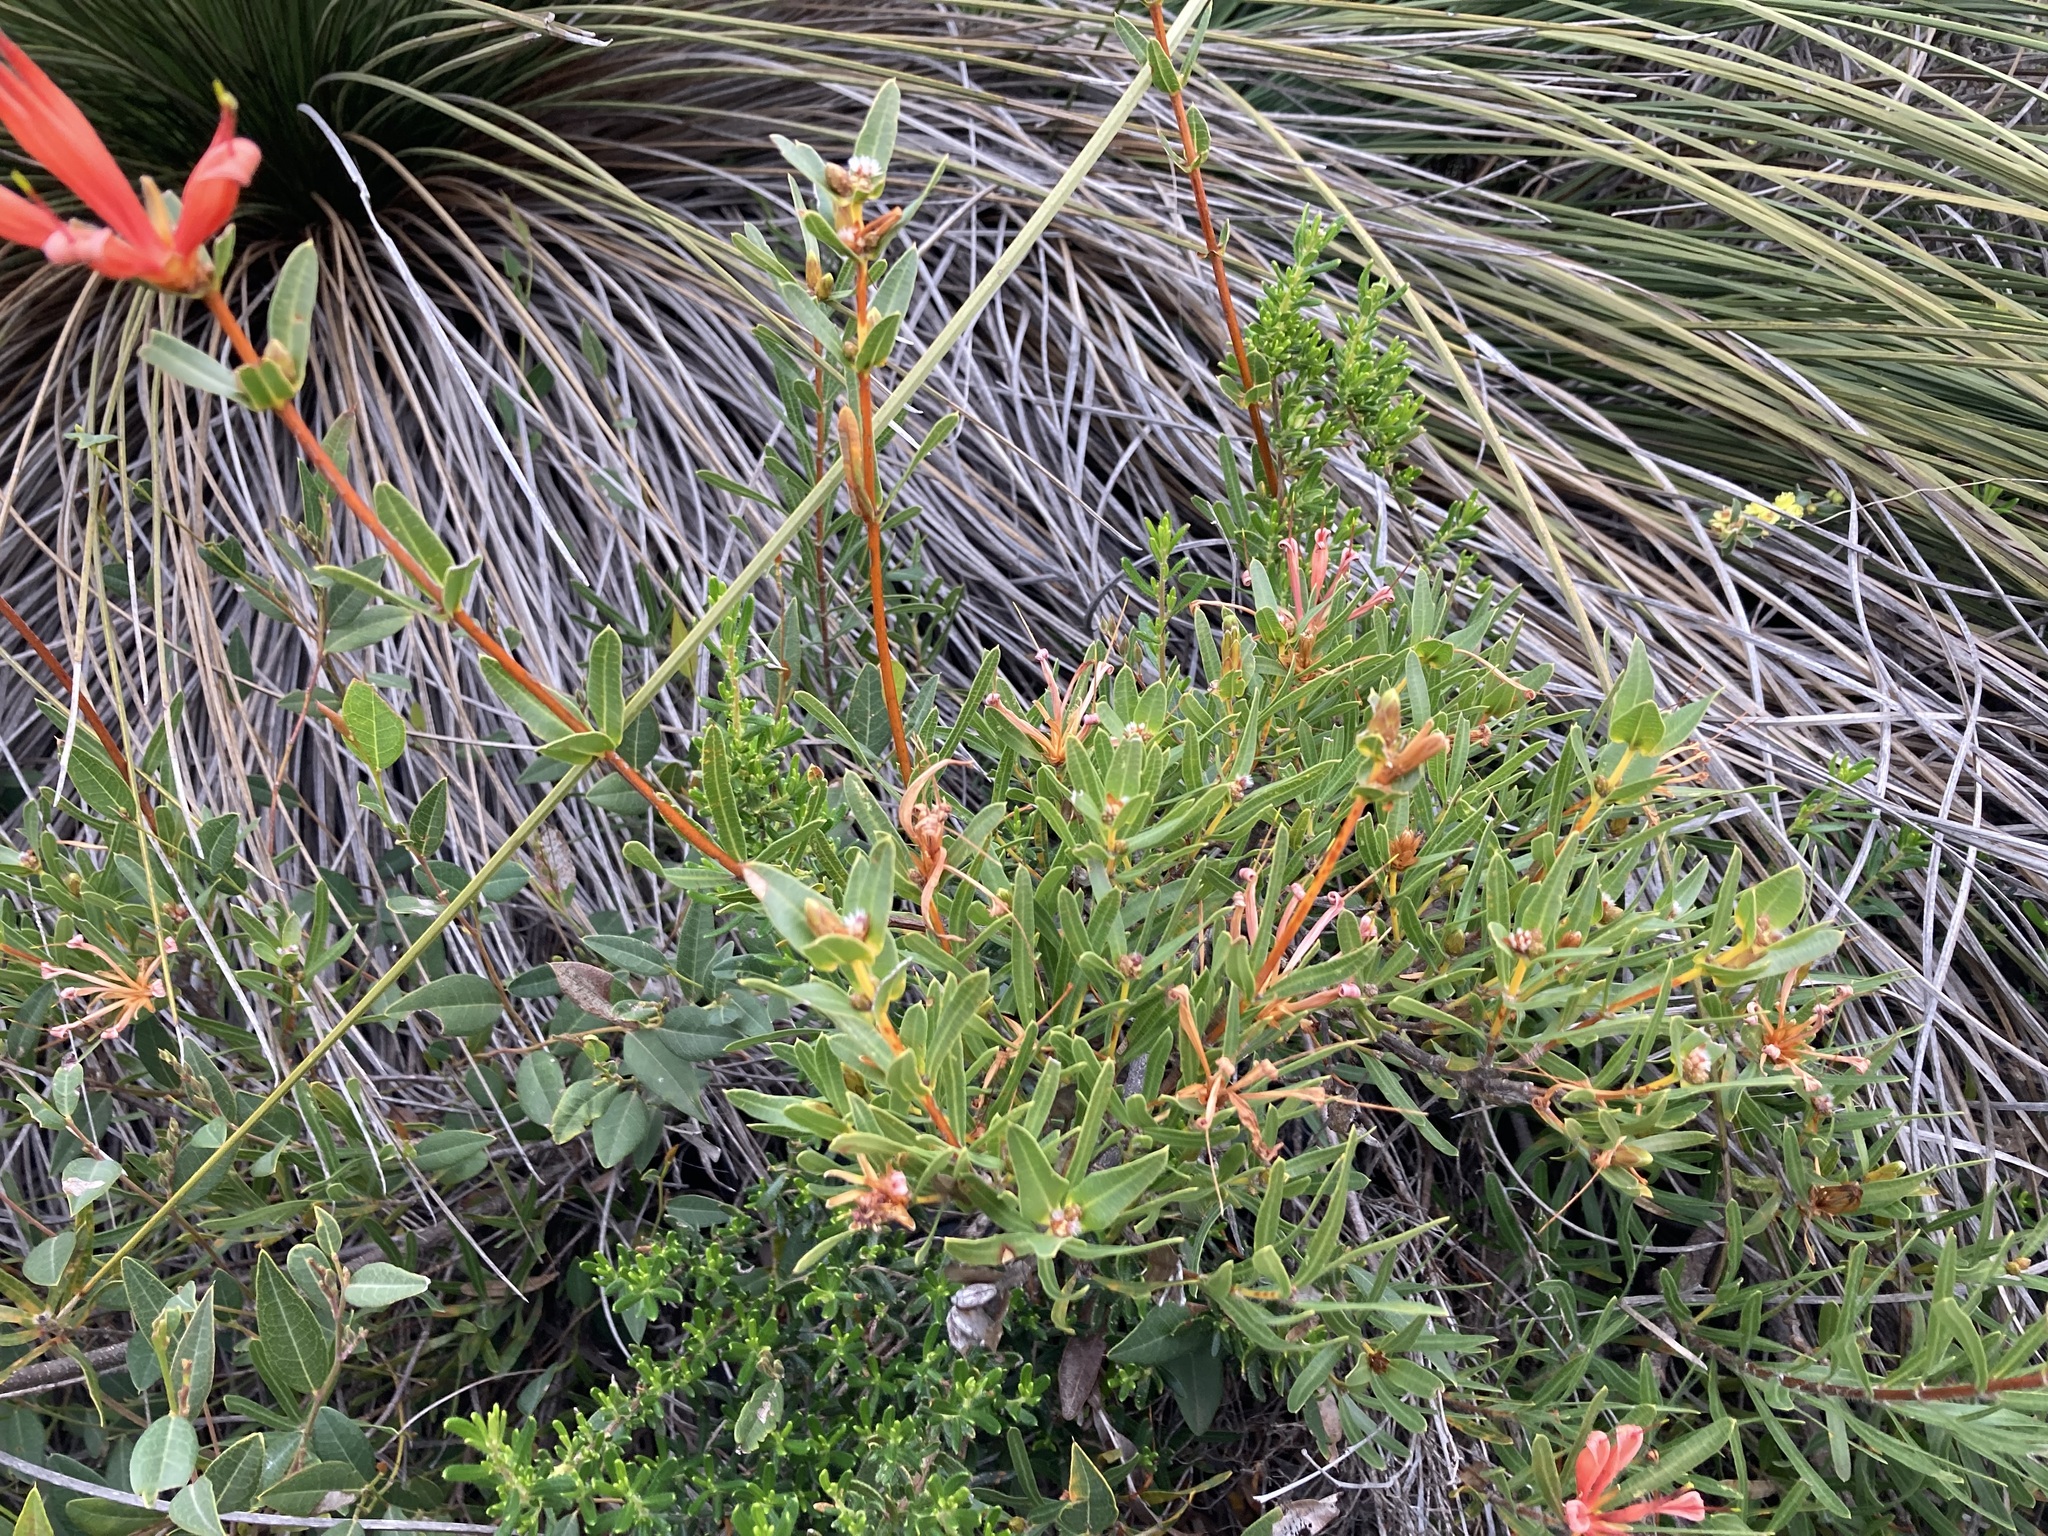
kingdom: Plantae
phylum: Tracheophyta
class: Magnoliopsida
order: Proteales
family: Proteaceae
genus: Lambertia
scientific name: Lambertia multiflora
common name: Many-flowered honeysuckle
